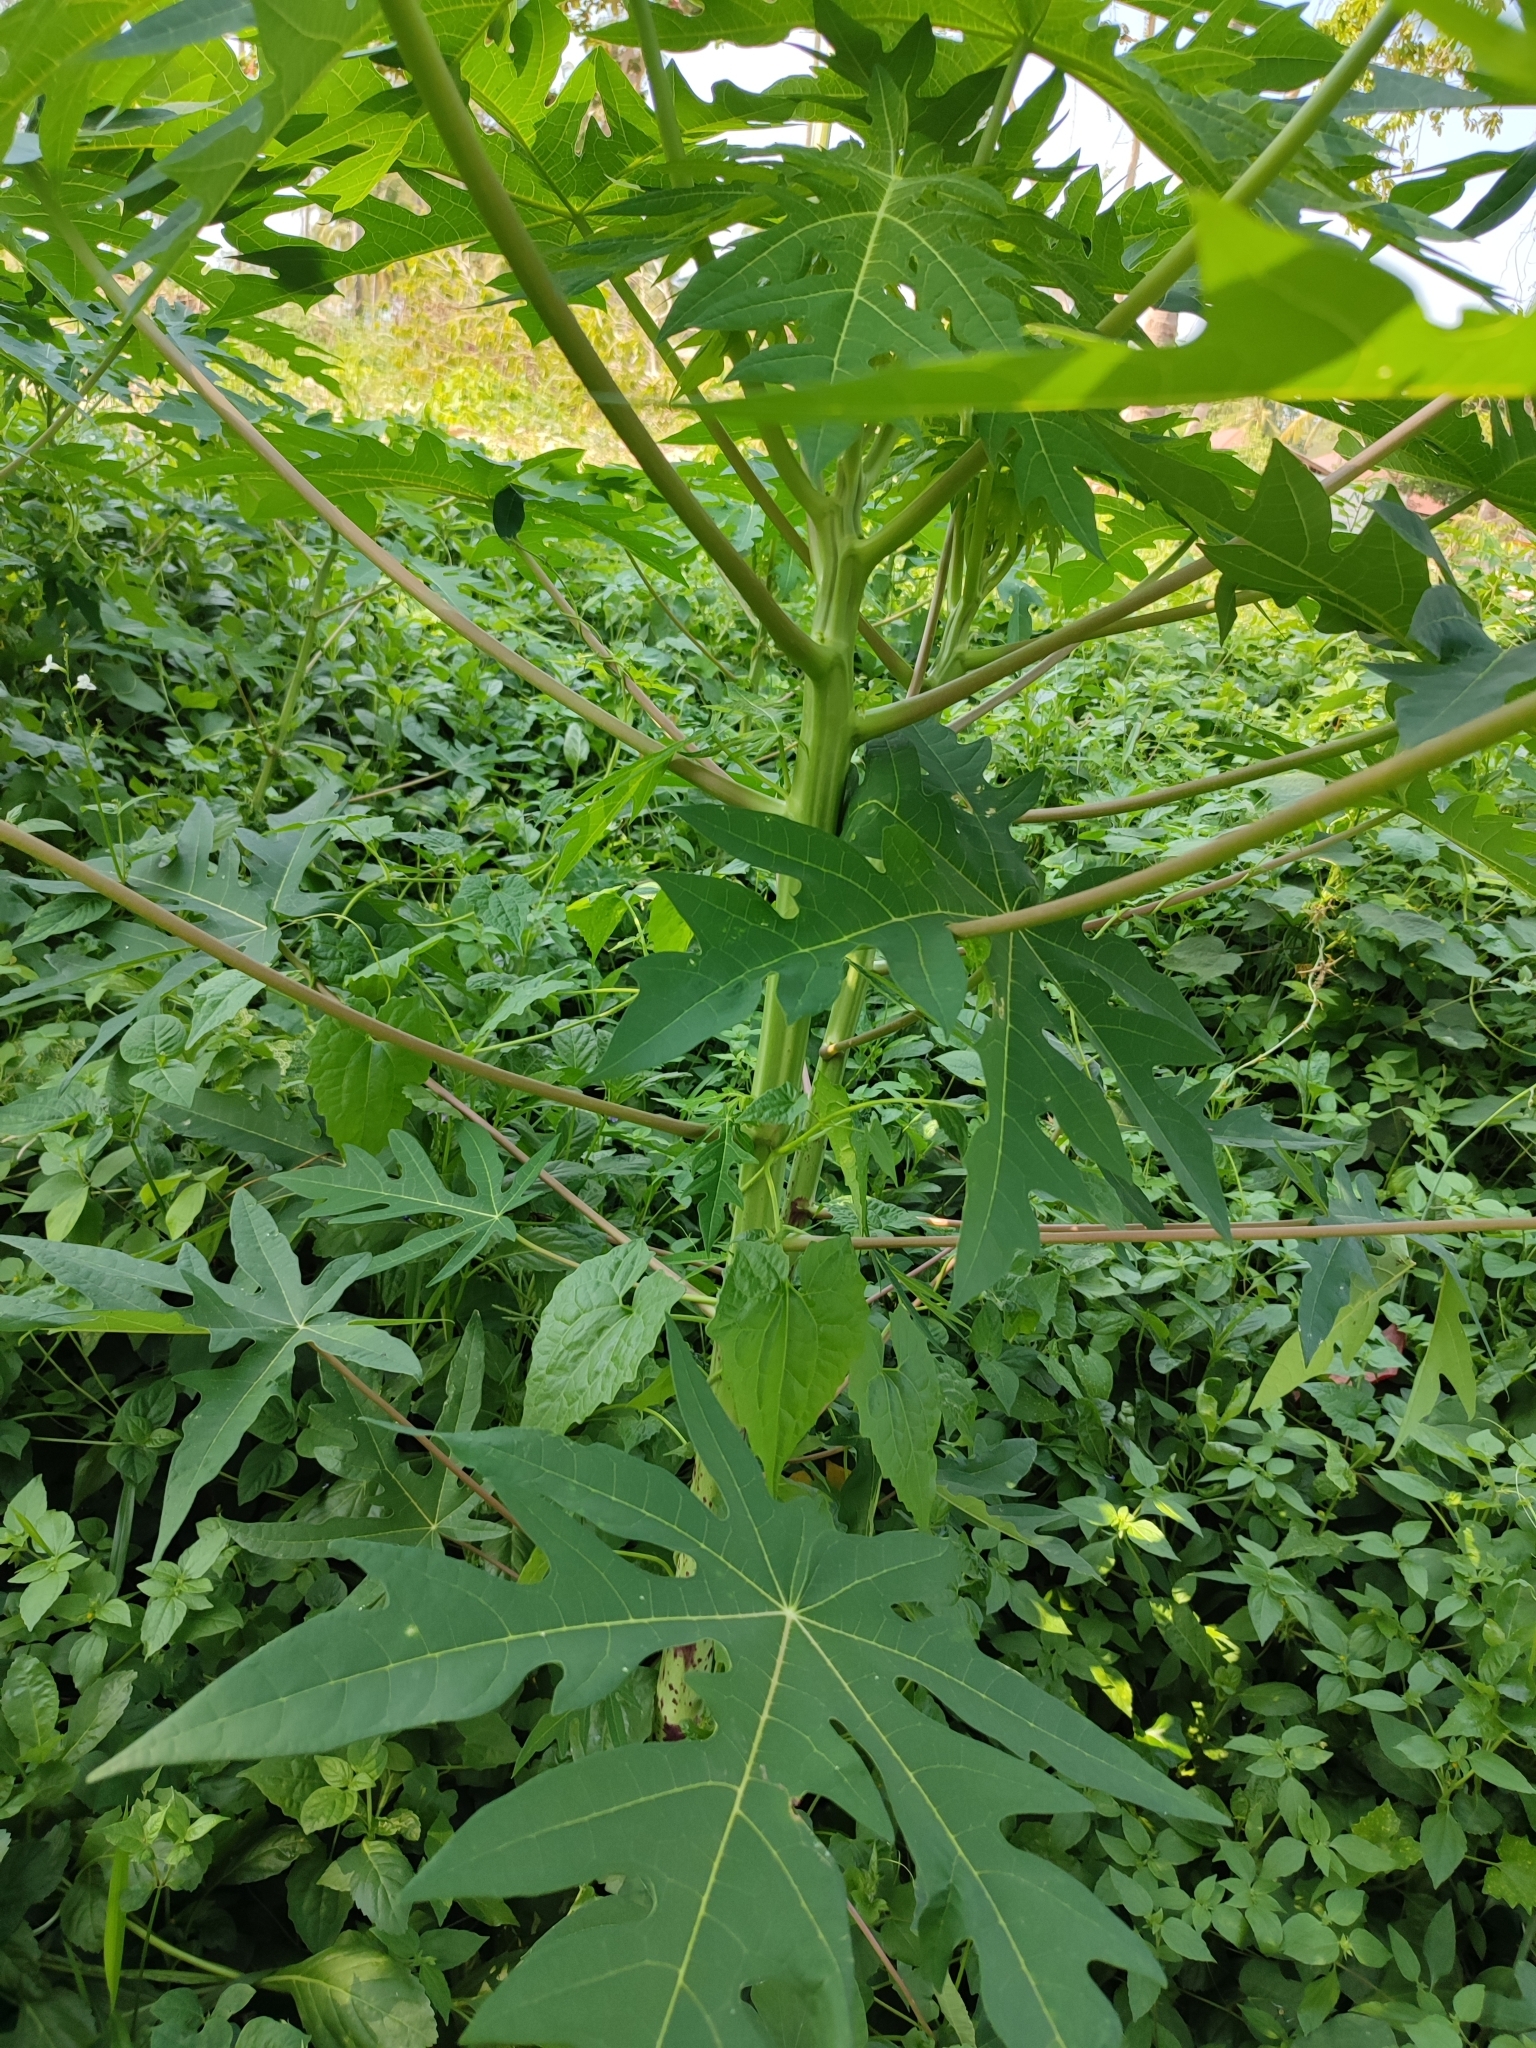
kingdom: Plantae
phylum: Tracheophyta
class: Magnoliopsida
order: Brassicales
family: Caricaceae
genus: Carica
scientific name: Carica papaya
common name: Papaya
